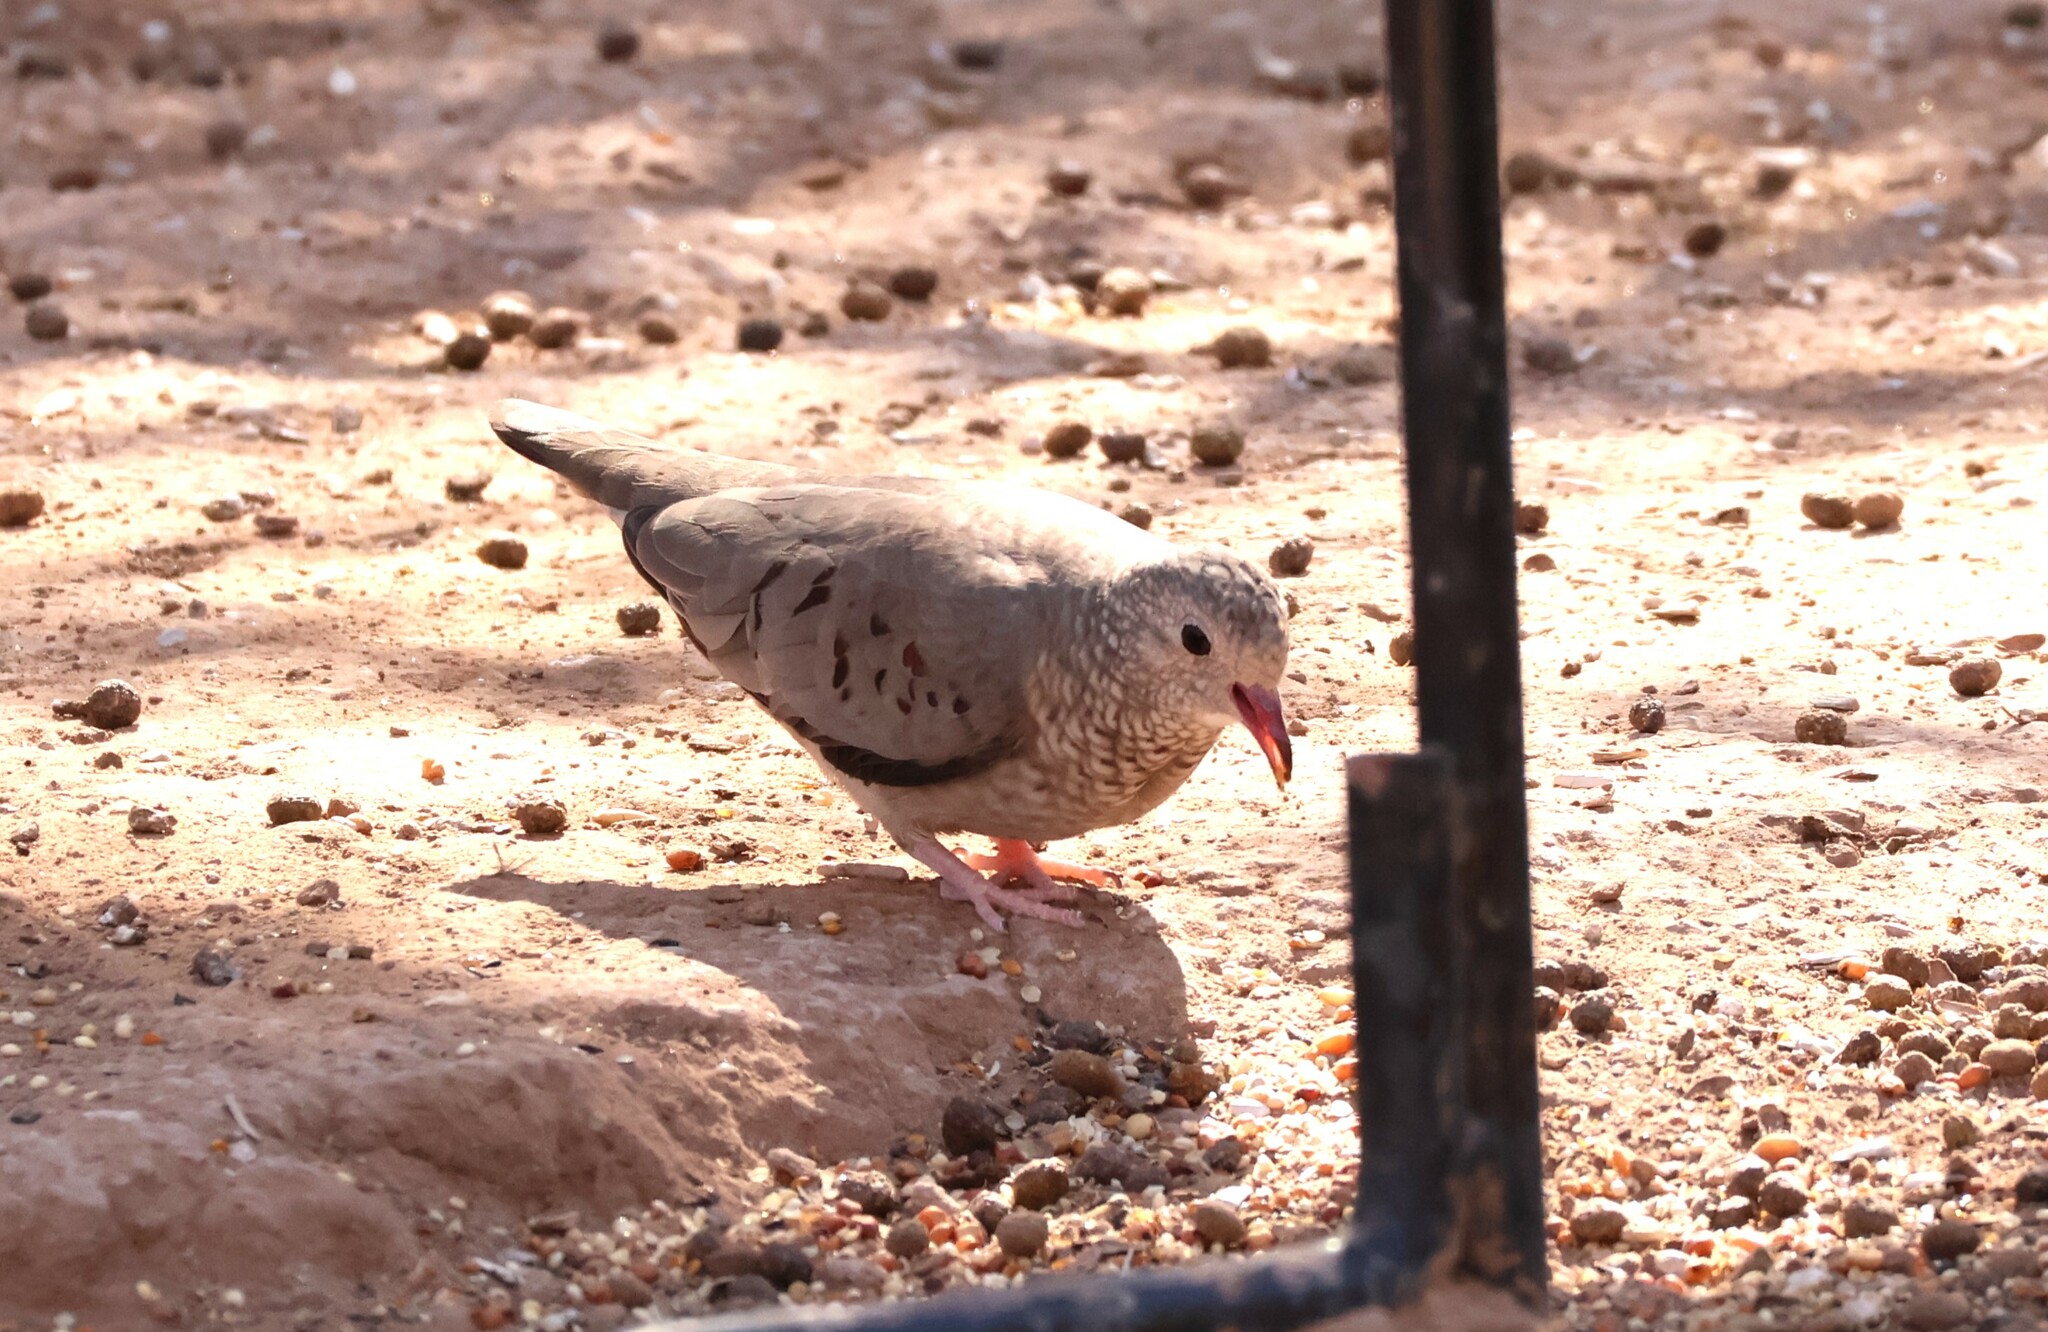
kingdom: Animalia
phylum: Chordata
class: Aves
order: Columbiformes
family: Columbidae
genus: Columbina
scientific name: Columbina passerina
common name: Common ground-dove
